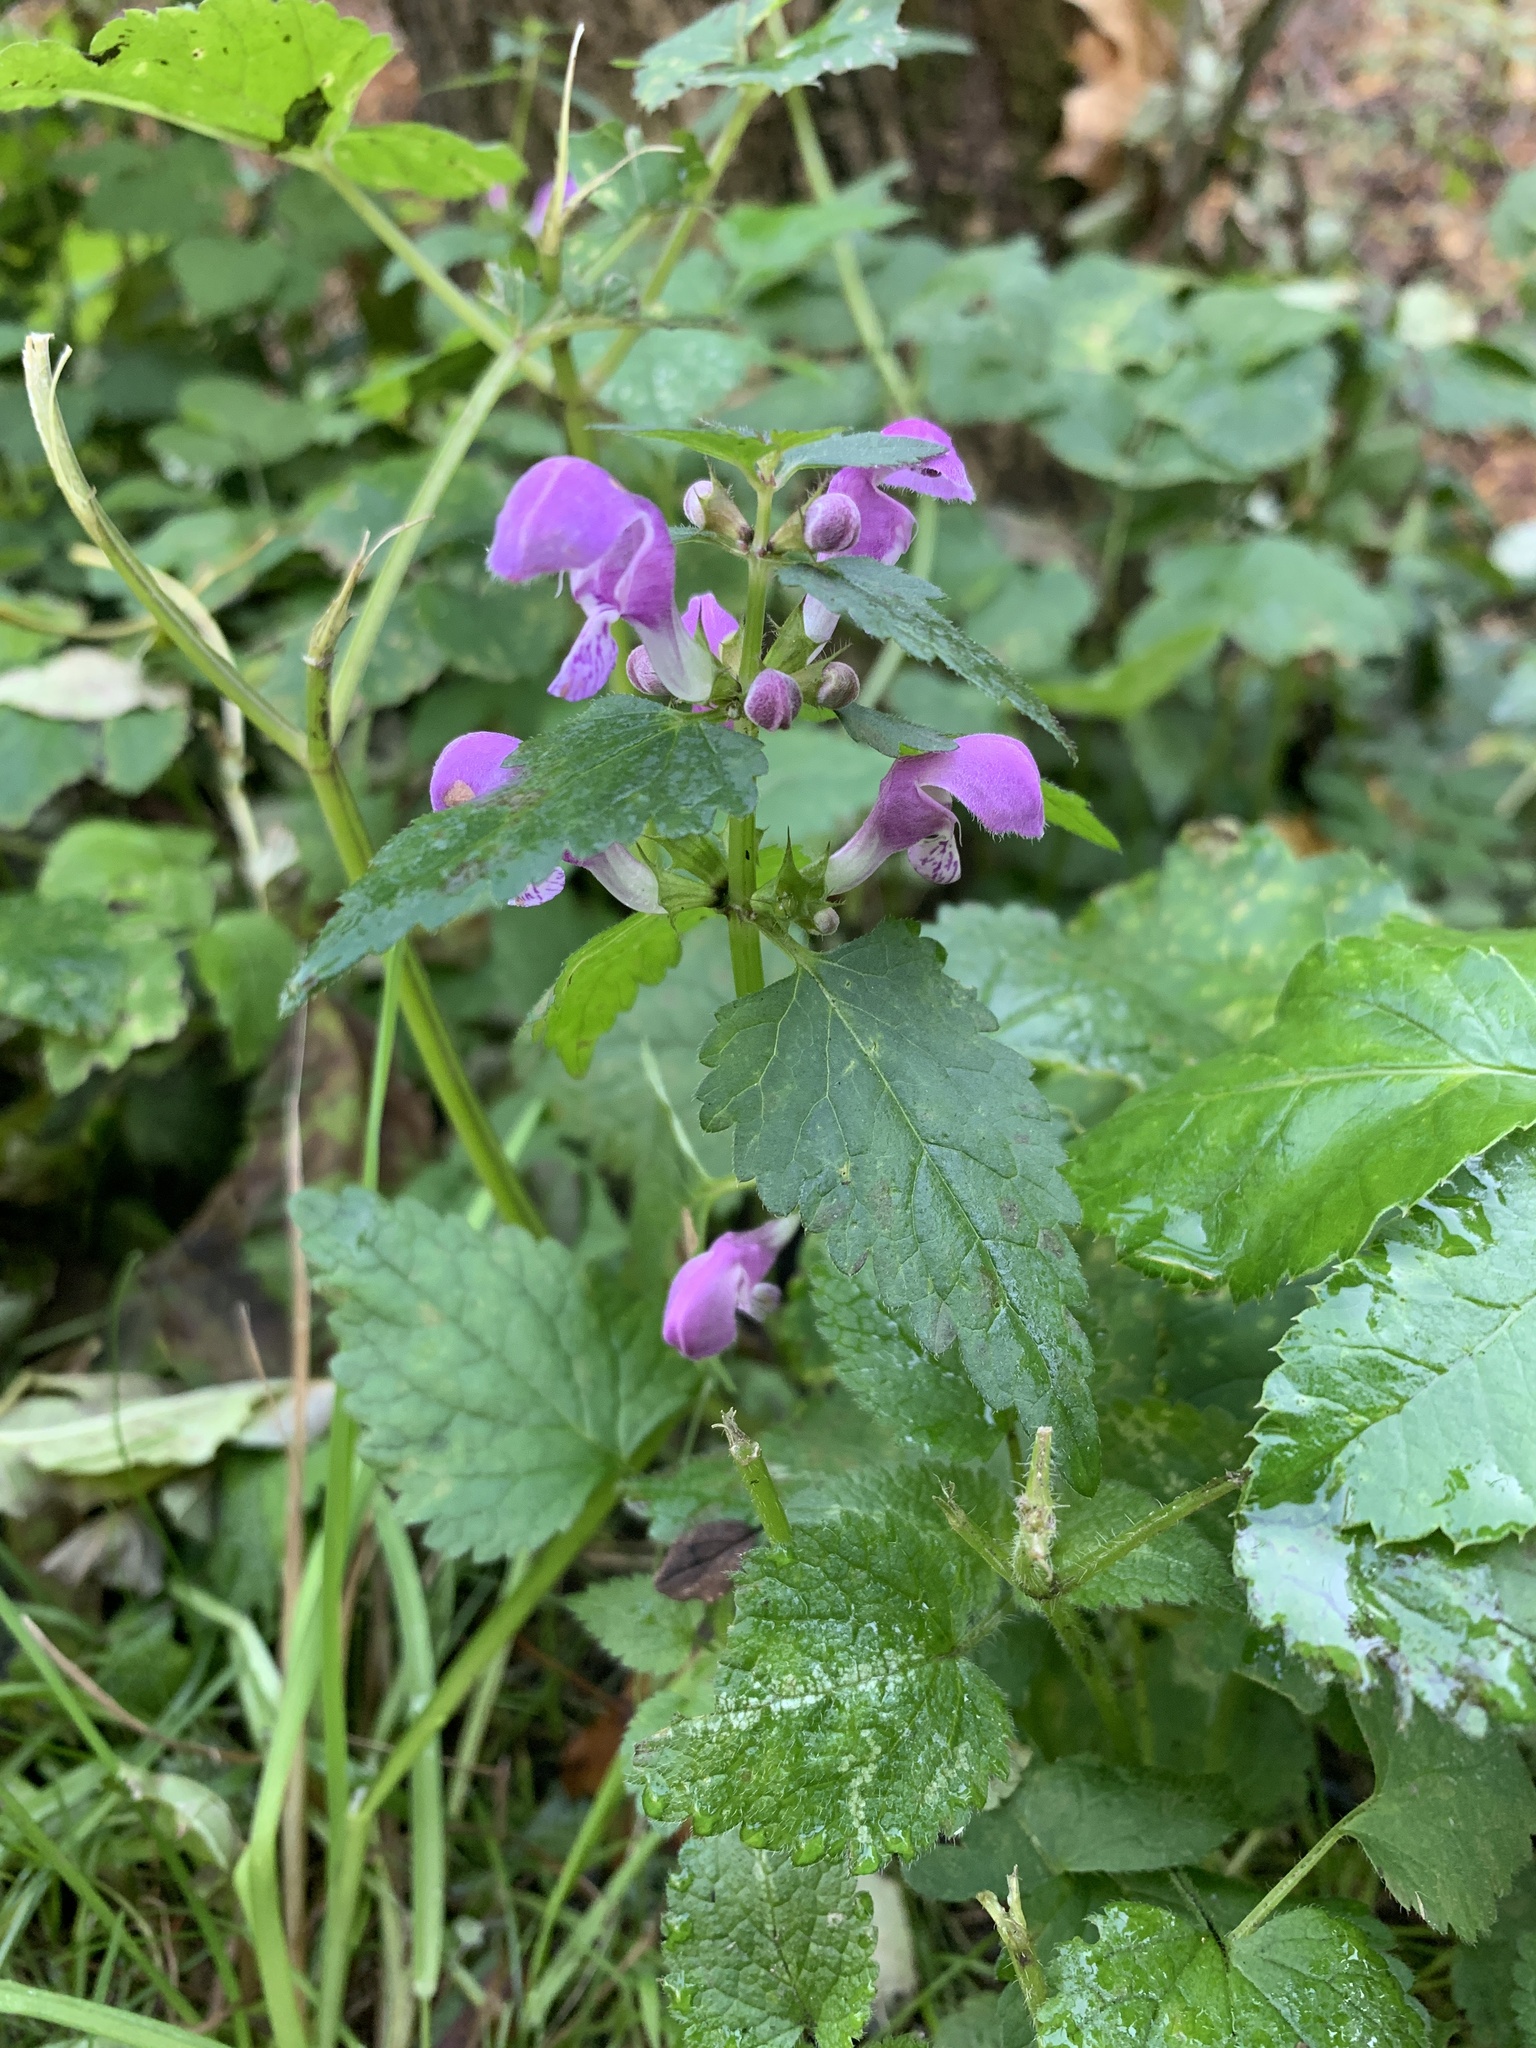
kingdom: Plantae
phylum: Tracheophyta
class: Magnoliopsida
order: Lamiales
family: Lamiaceae
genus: Lamium
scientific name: Lamium maculatum
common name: Spotted dead-nettle
